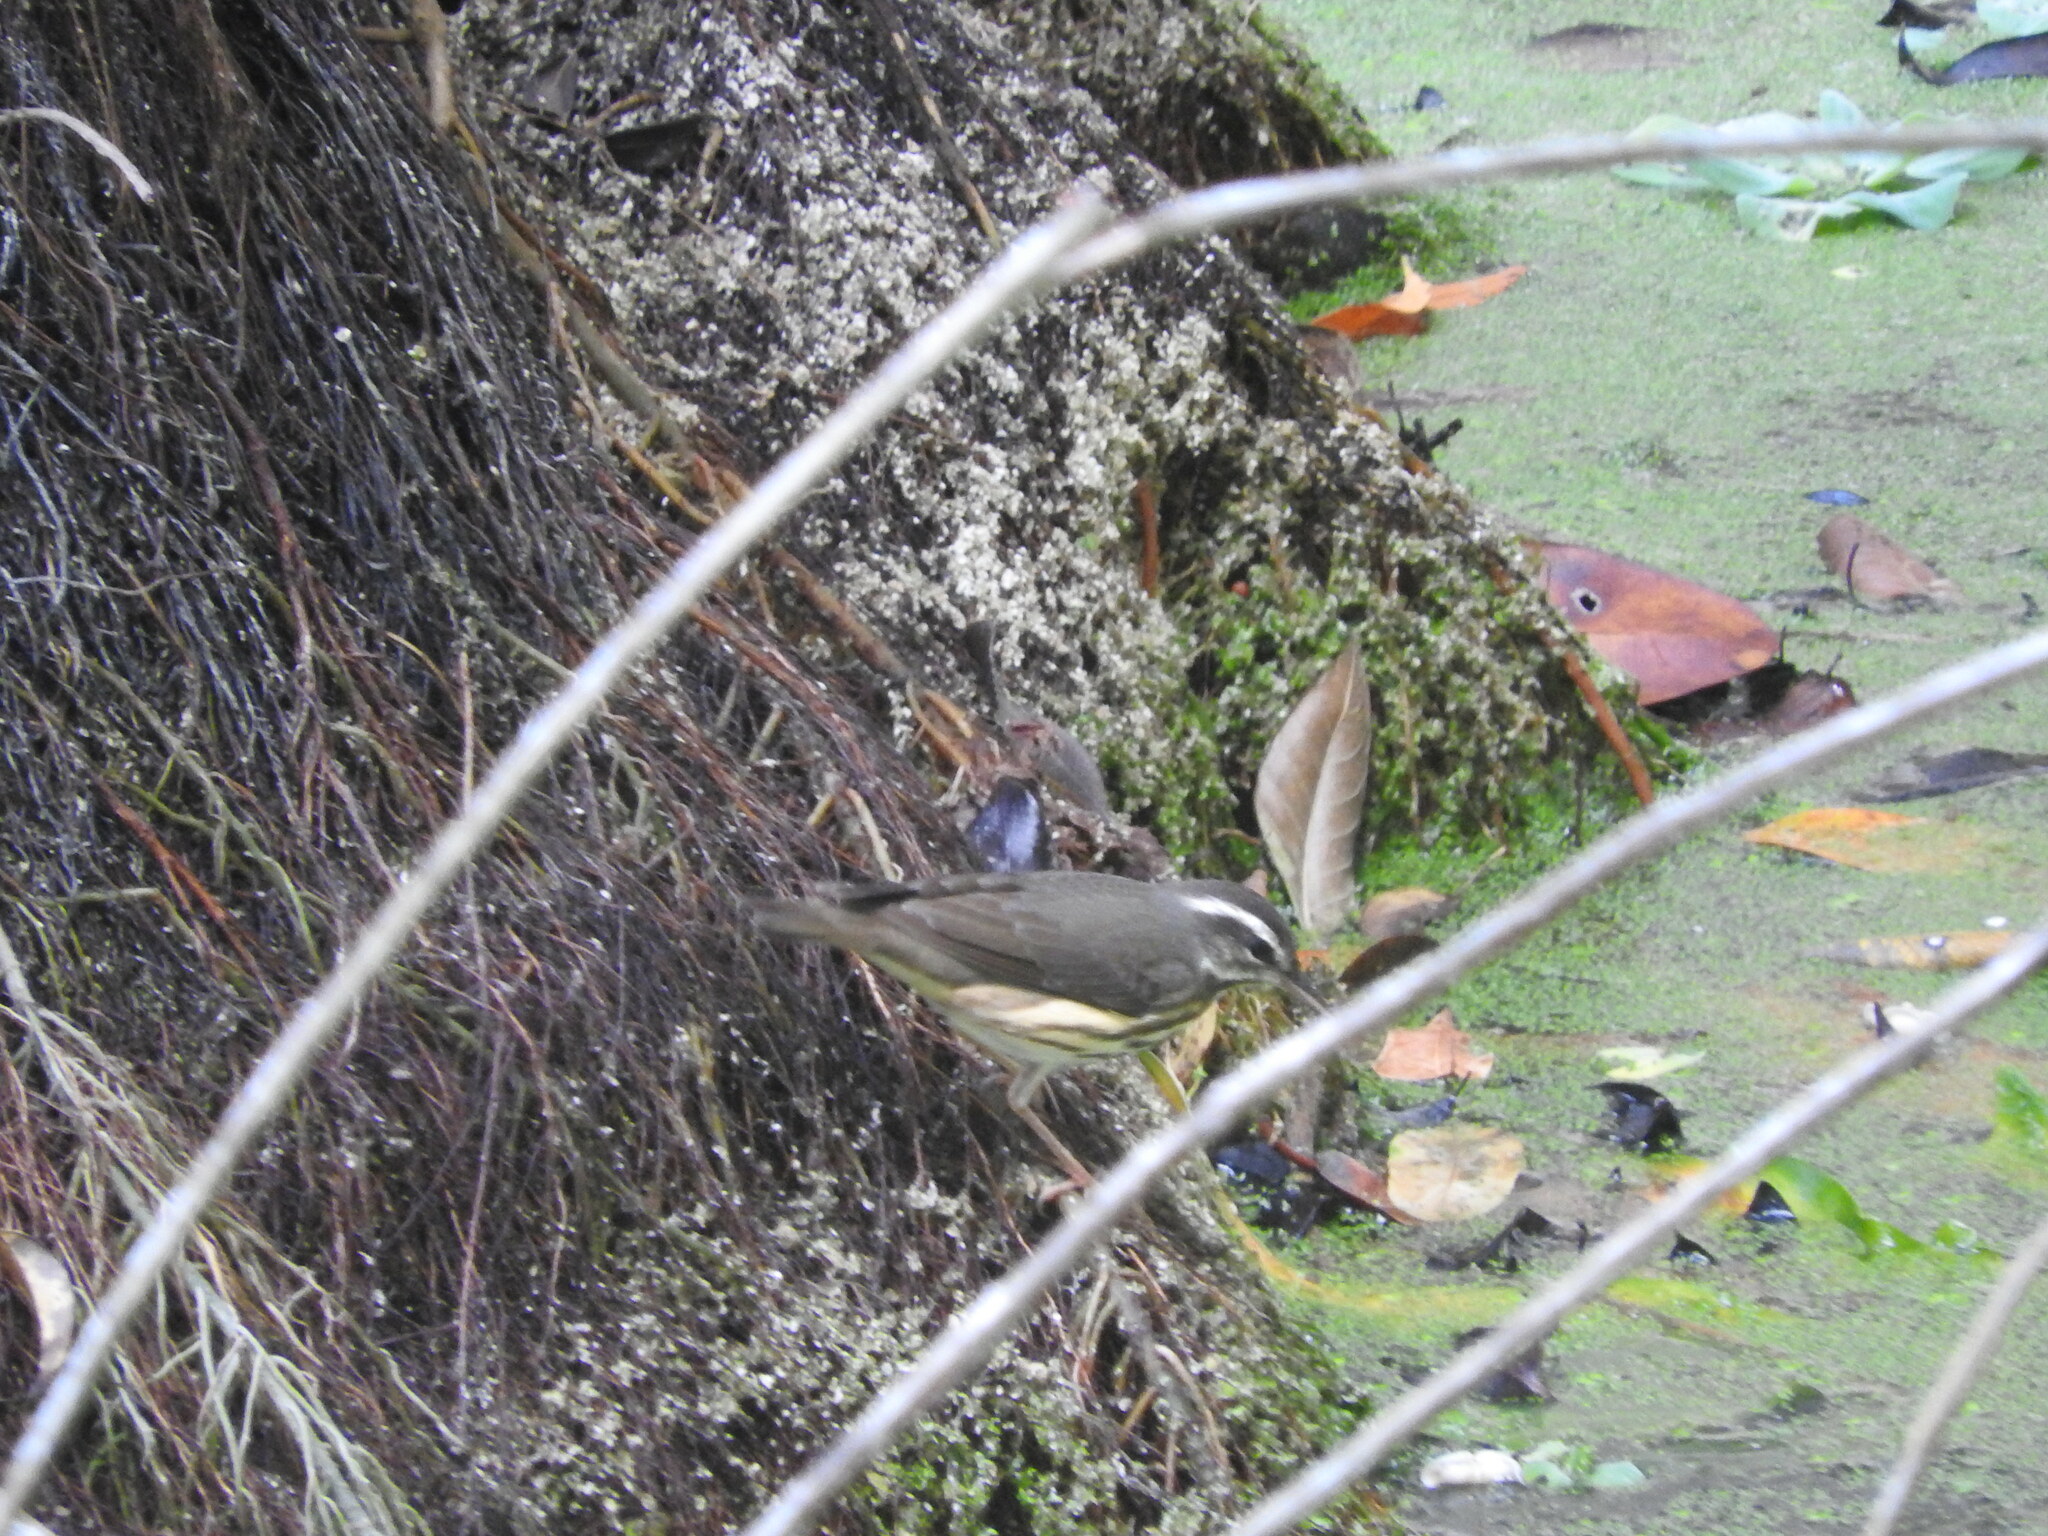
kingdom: Animalia
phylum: Chordata
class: Aves
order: Passeriformes
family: Parulidae
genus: Parkesia
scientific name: Parkesia motacilla
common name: Louisiana waterthrush
